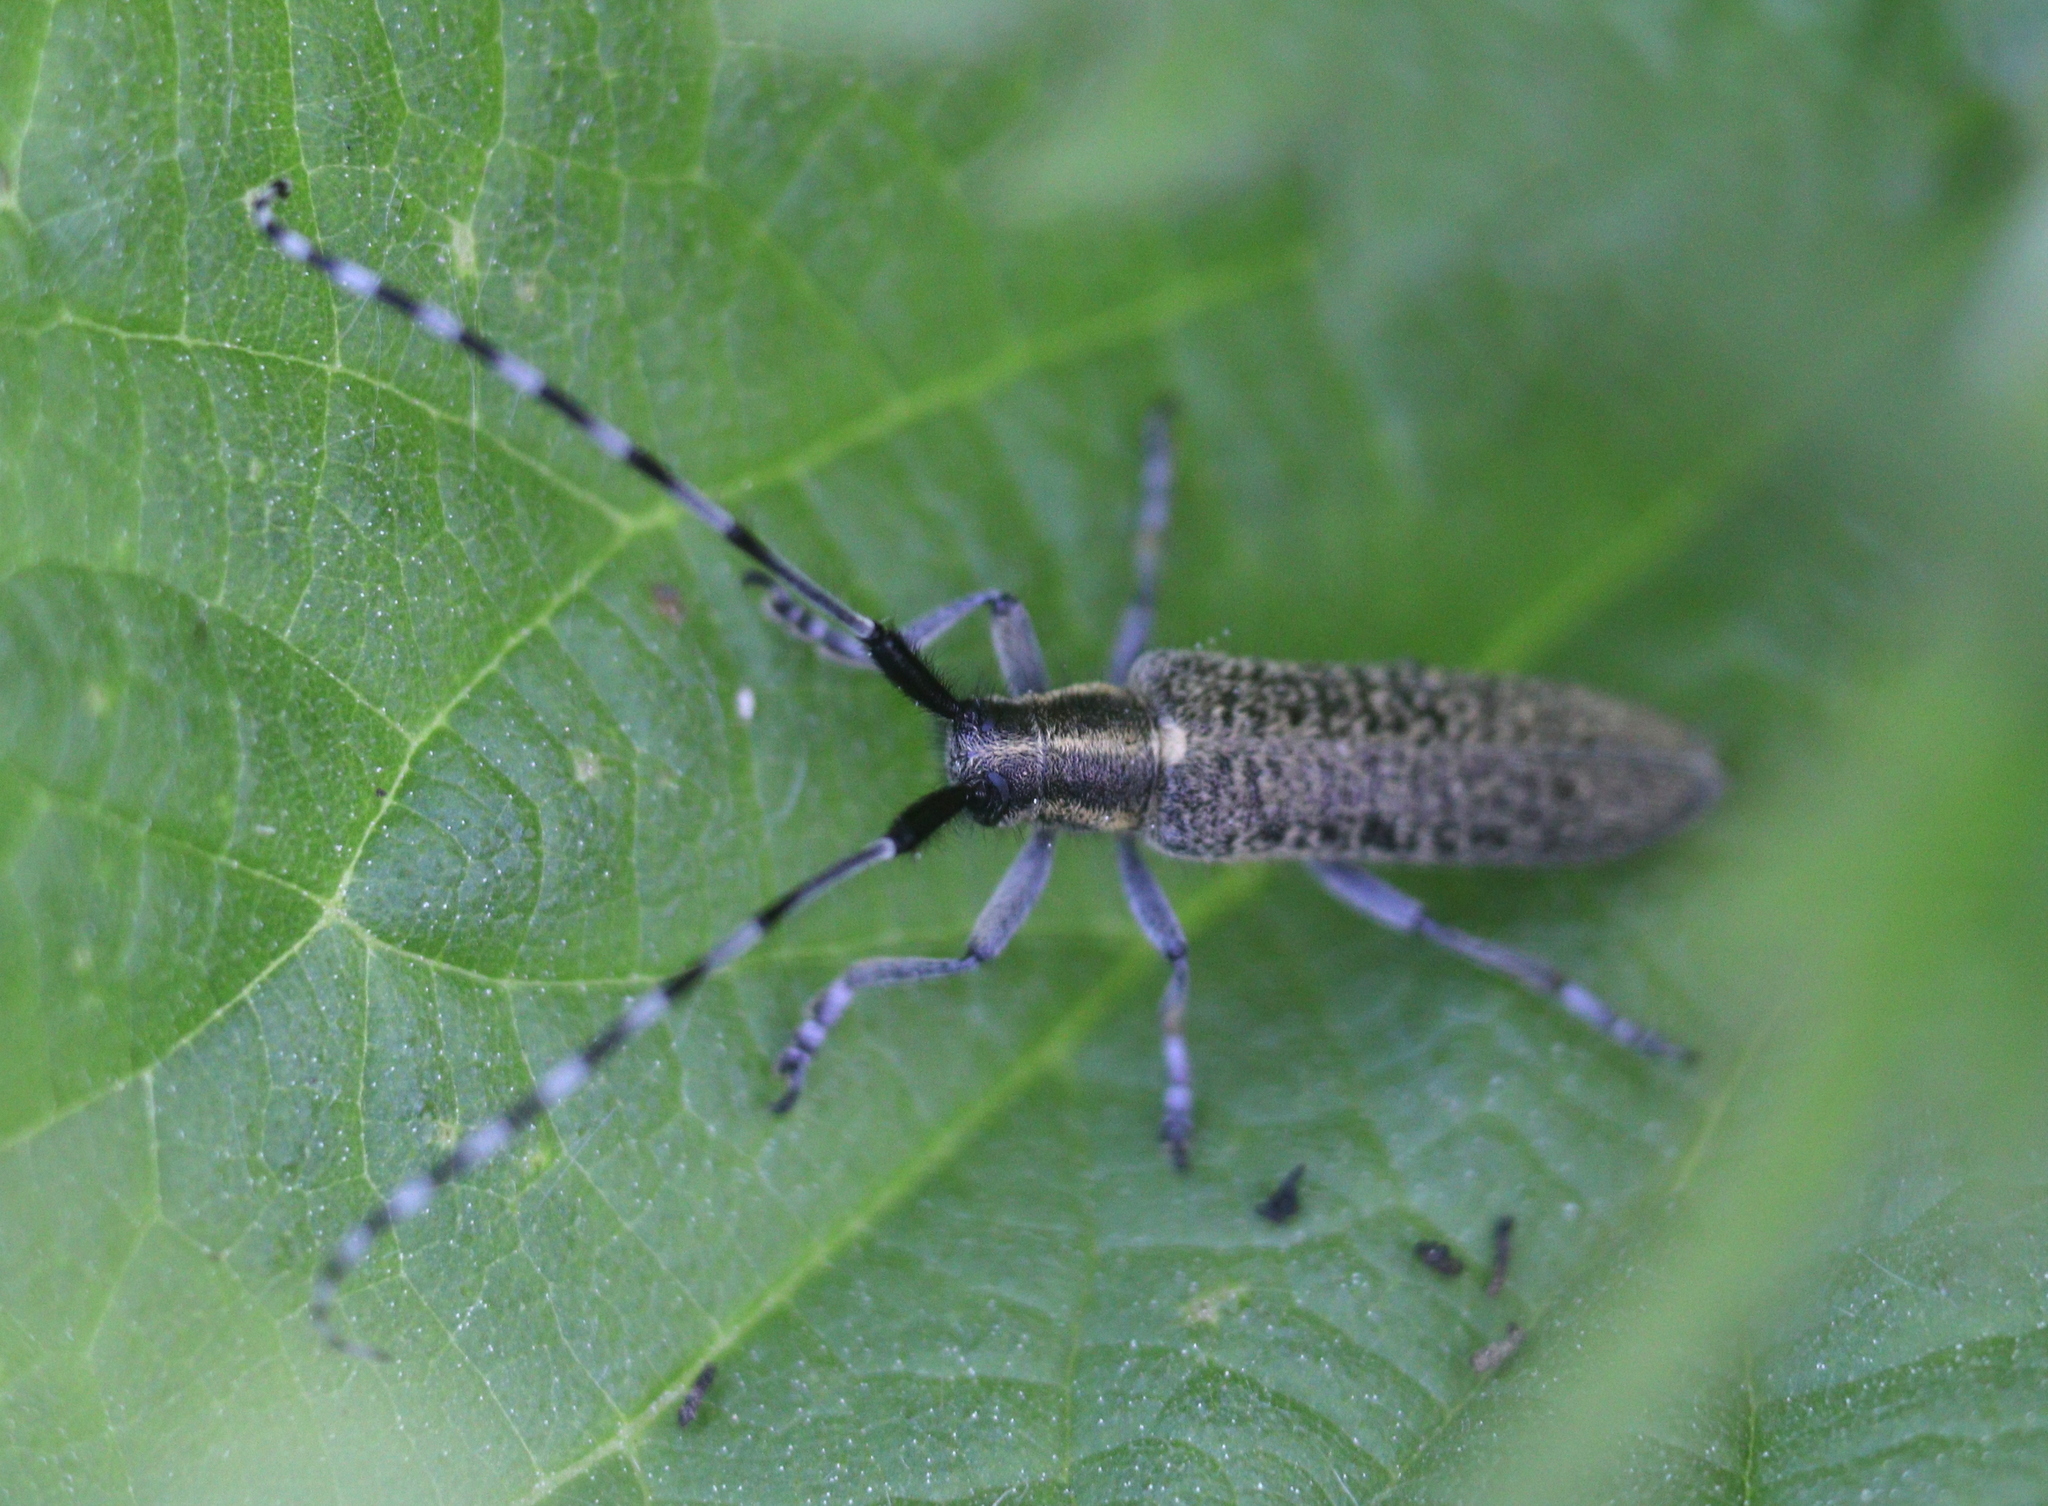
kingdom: Animalia
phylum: Arthropoda
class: Insecta
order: Coleoptera
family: Cerambycidae
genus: Agapanthia
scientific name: Agapanthia villosoviridescens
